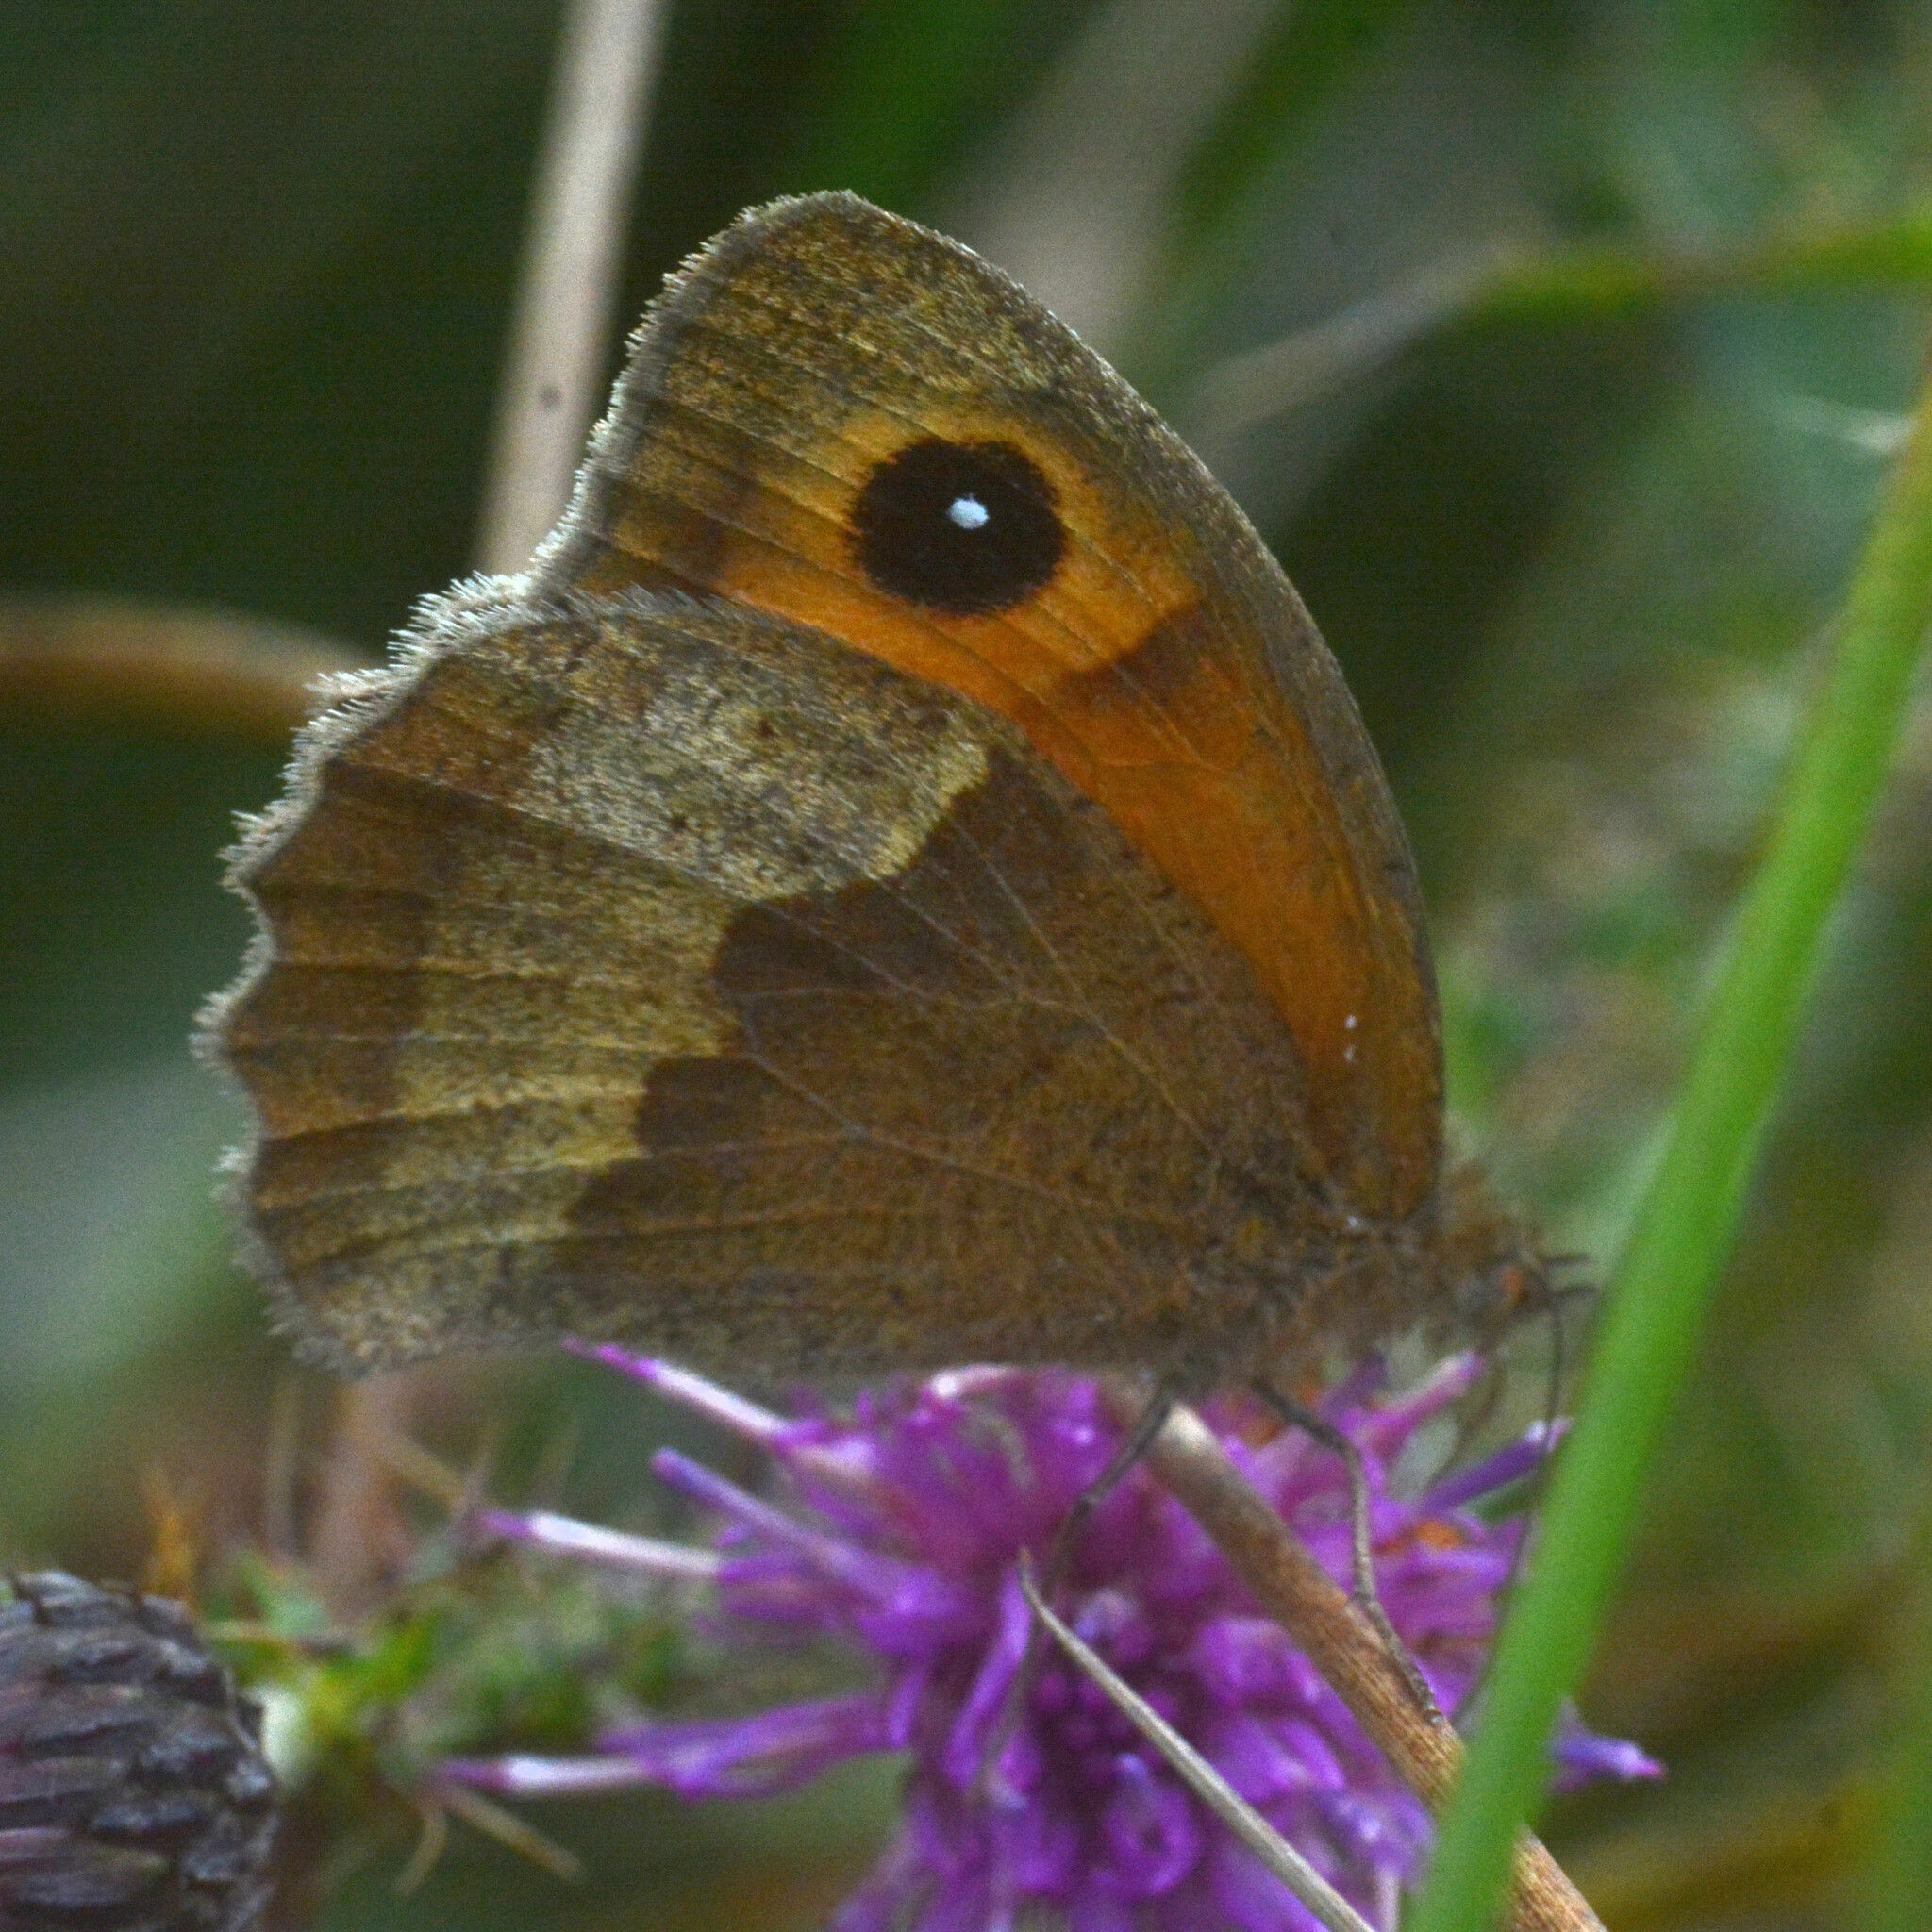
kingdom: Animalia
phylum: Arthropoda
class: Insecta
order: Lepidoptera
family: Nymphalidae
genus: Maniola
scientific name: Maniola jurtina
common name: Meadow brown
